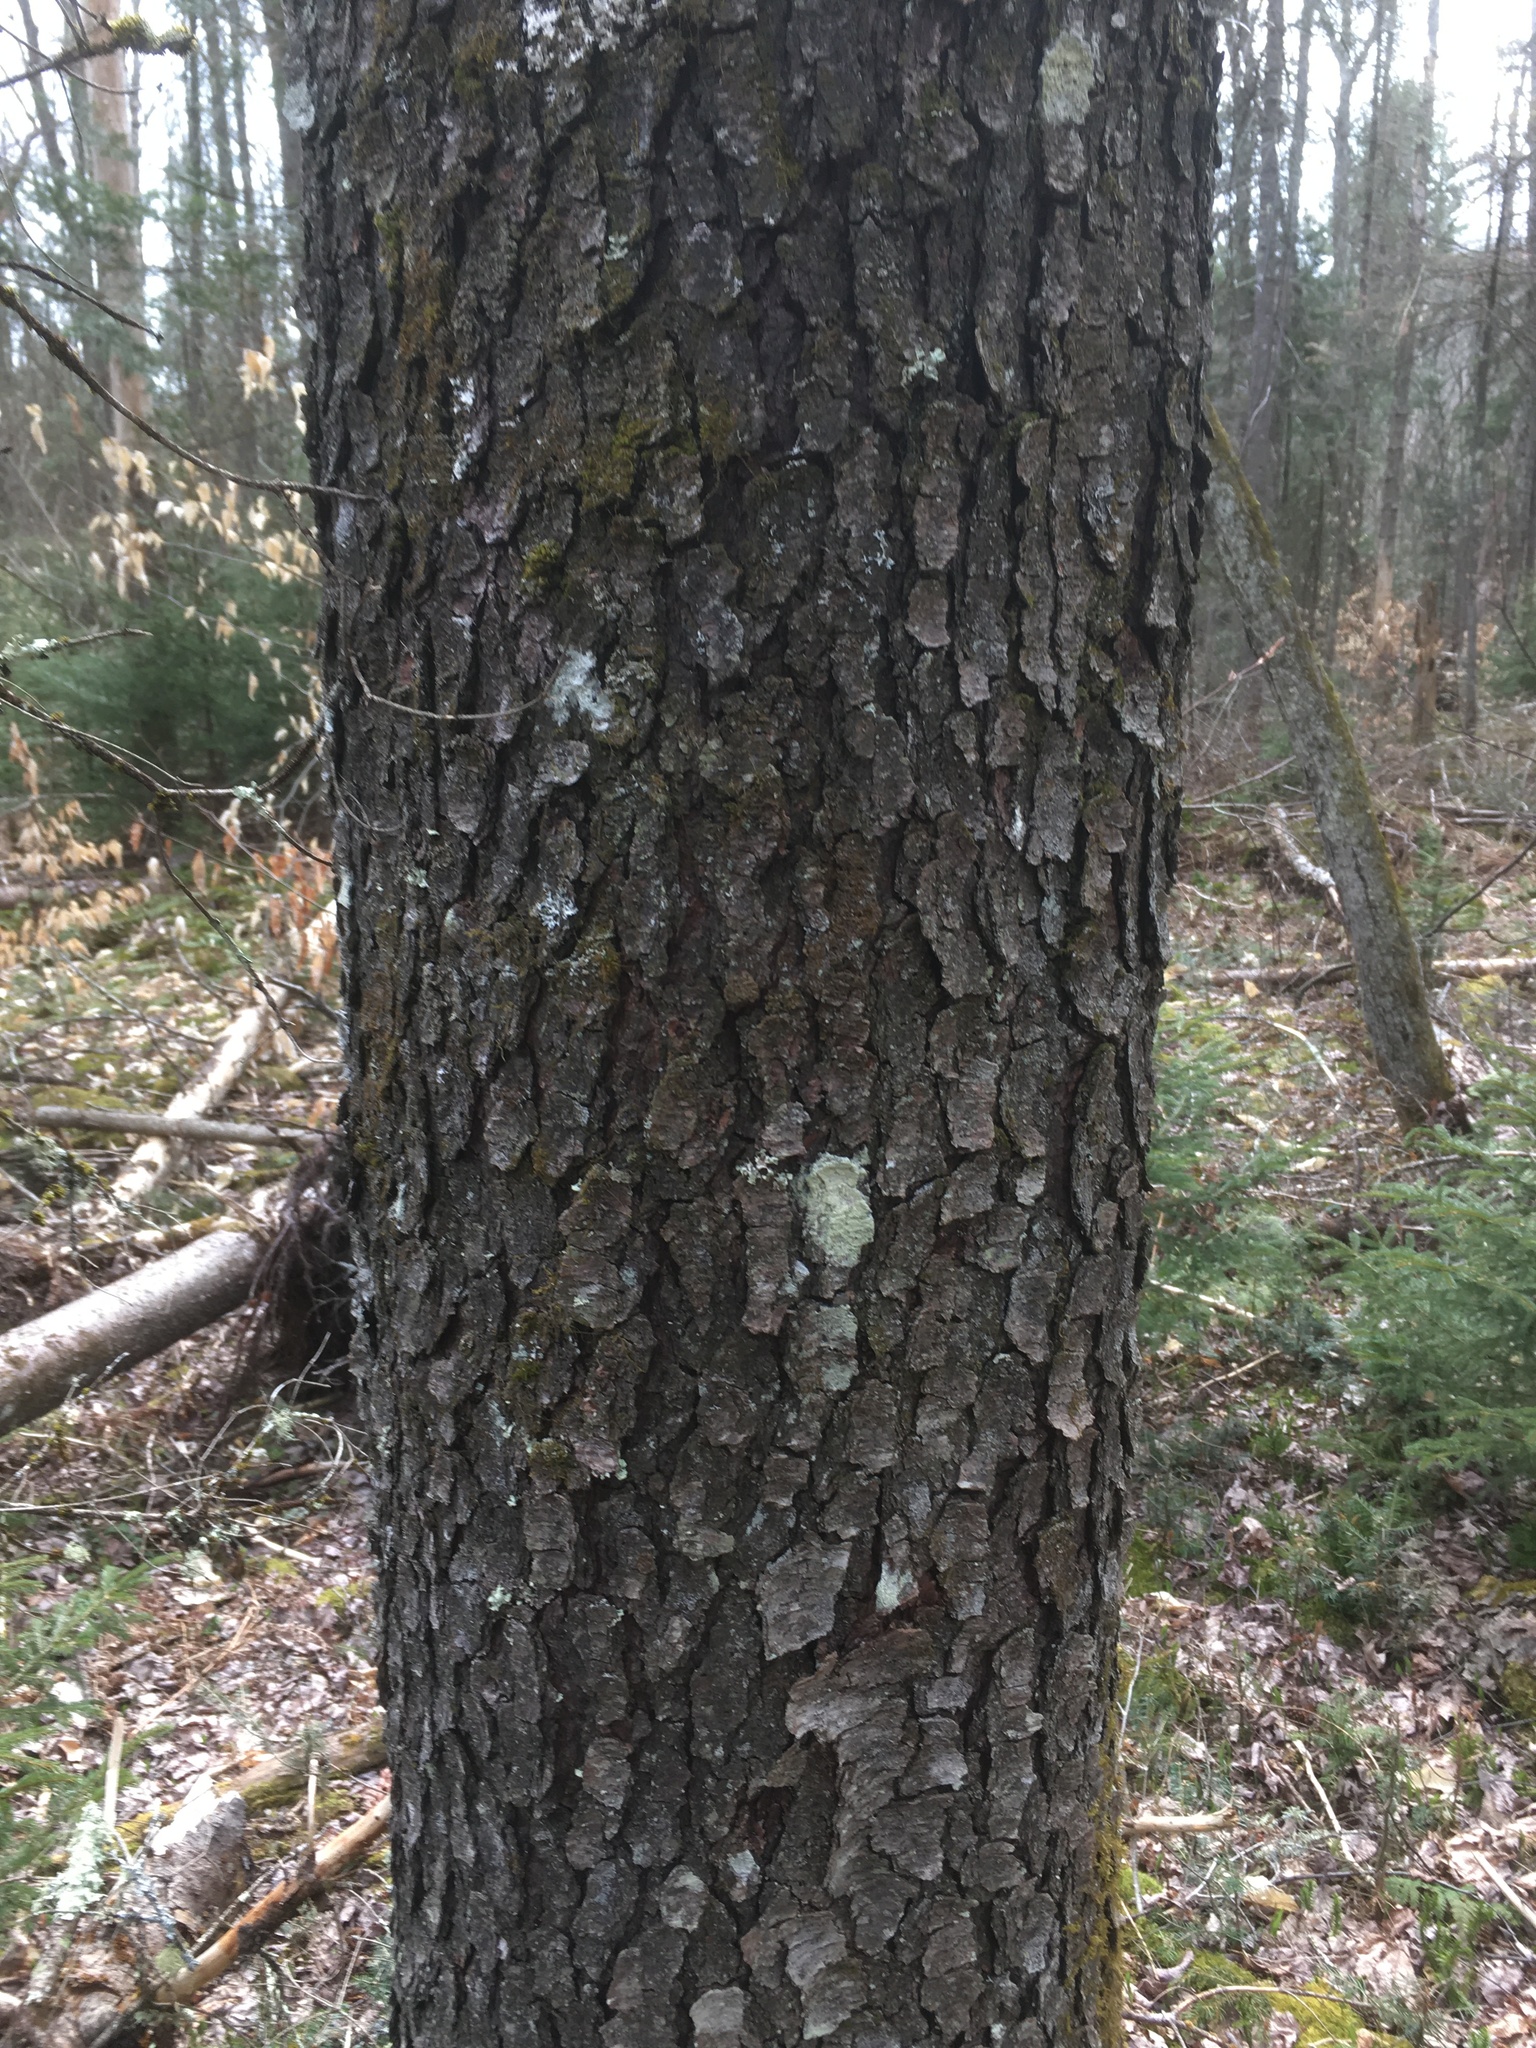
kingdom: Plantae
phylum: Tracheophyta
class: Magnoliopsida
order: Rosales
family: Rosaceae
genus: Prunus
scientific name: Prunus serotina
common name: Black cherry
